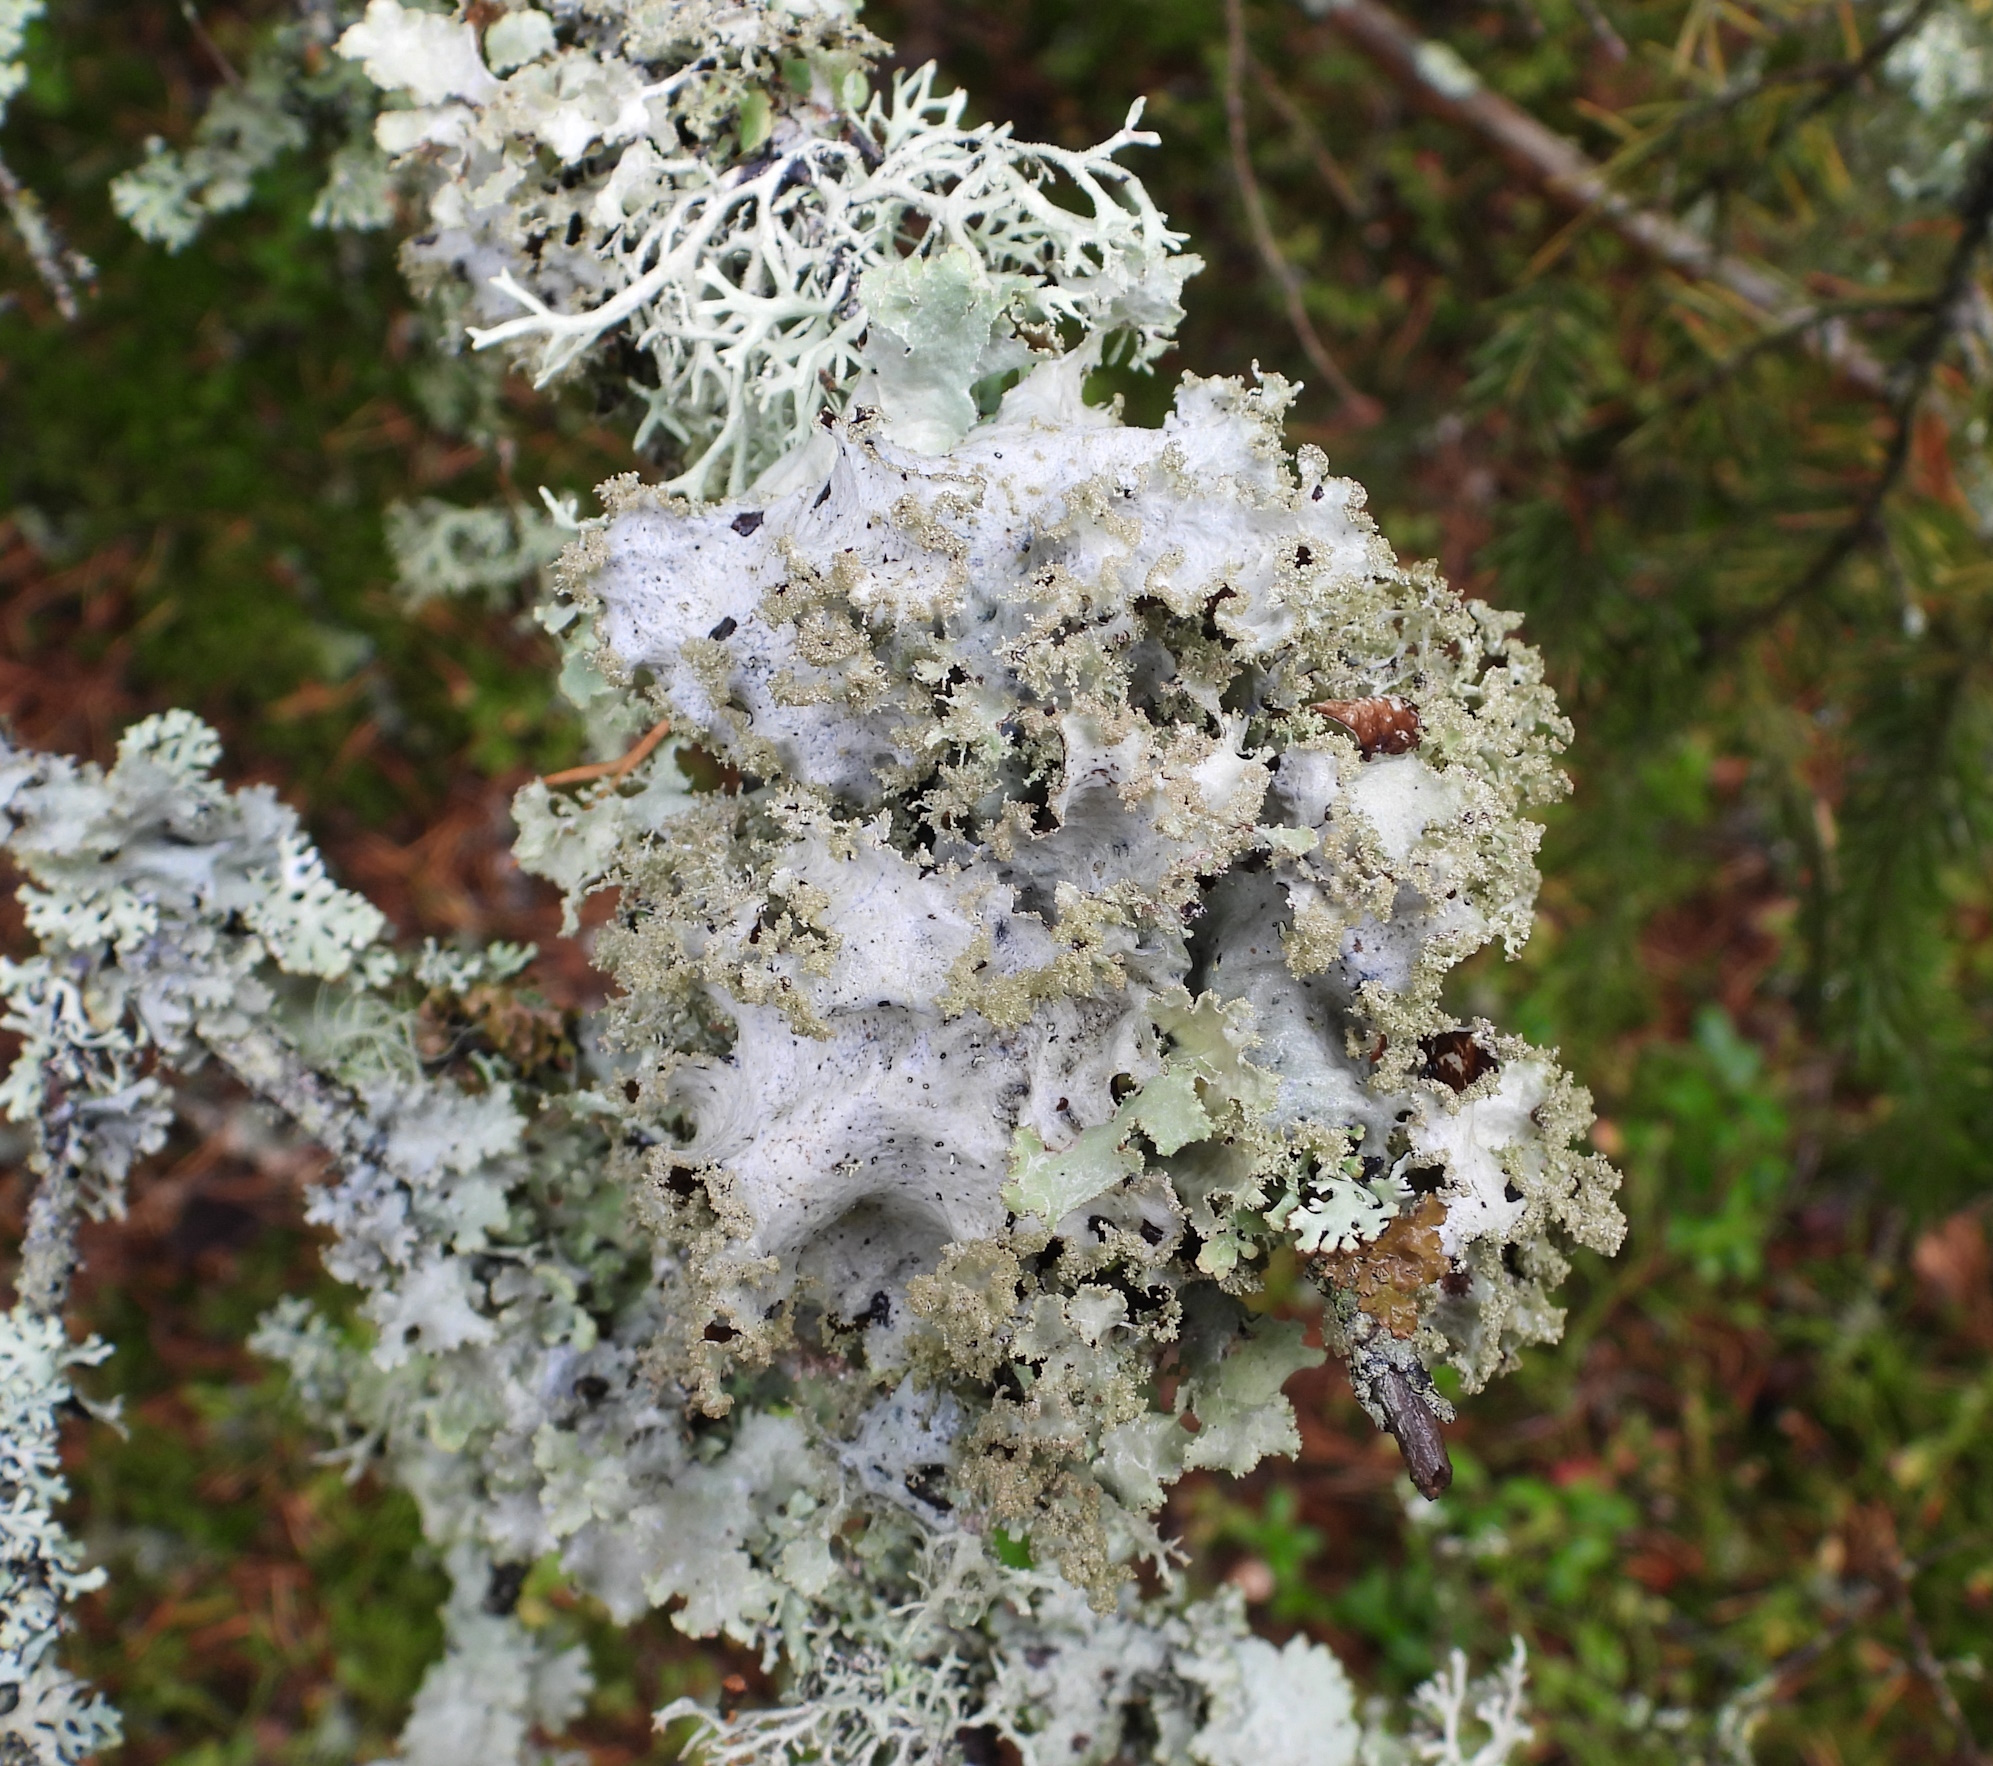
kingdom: Fungi
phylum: Ascomycota
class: Lecanoromycetes
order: Lecanorales
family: Parmeliaceae
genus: Platismatia
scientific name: Platismatia glauca
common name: Varied rag lichen
